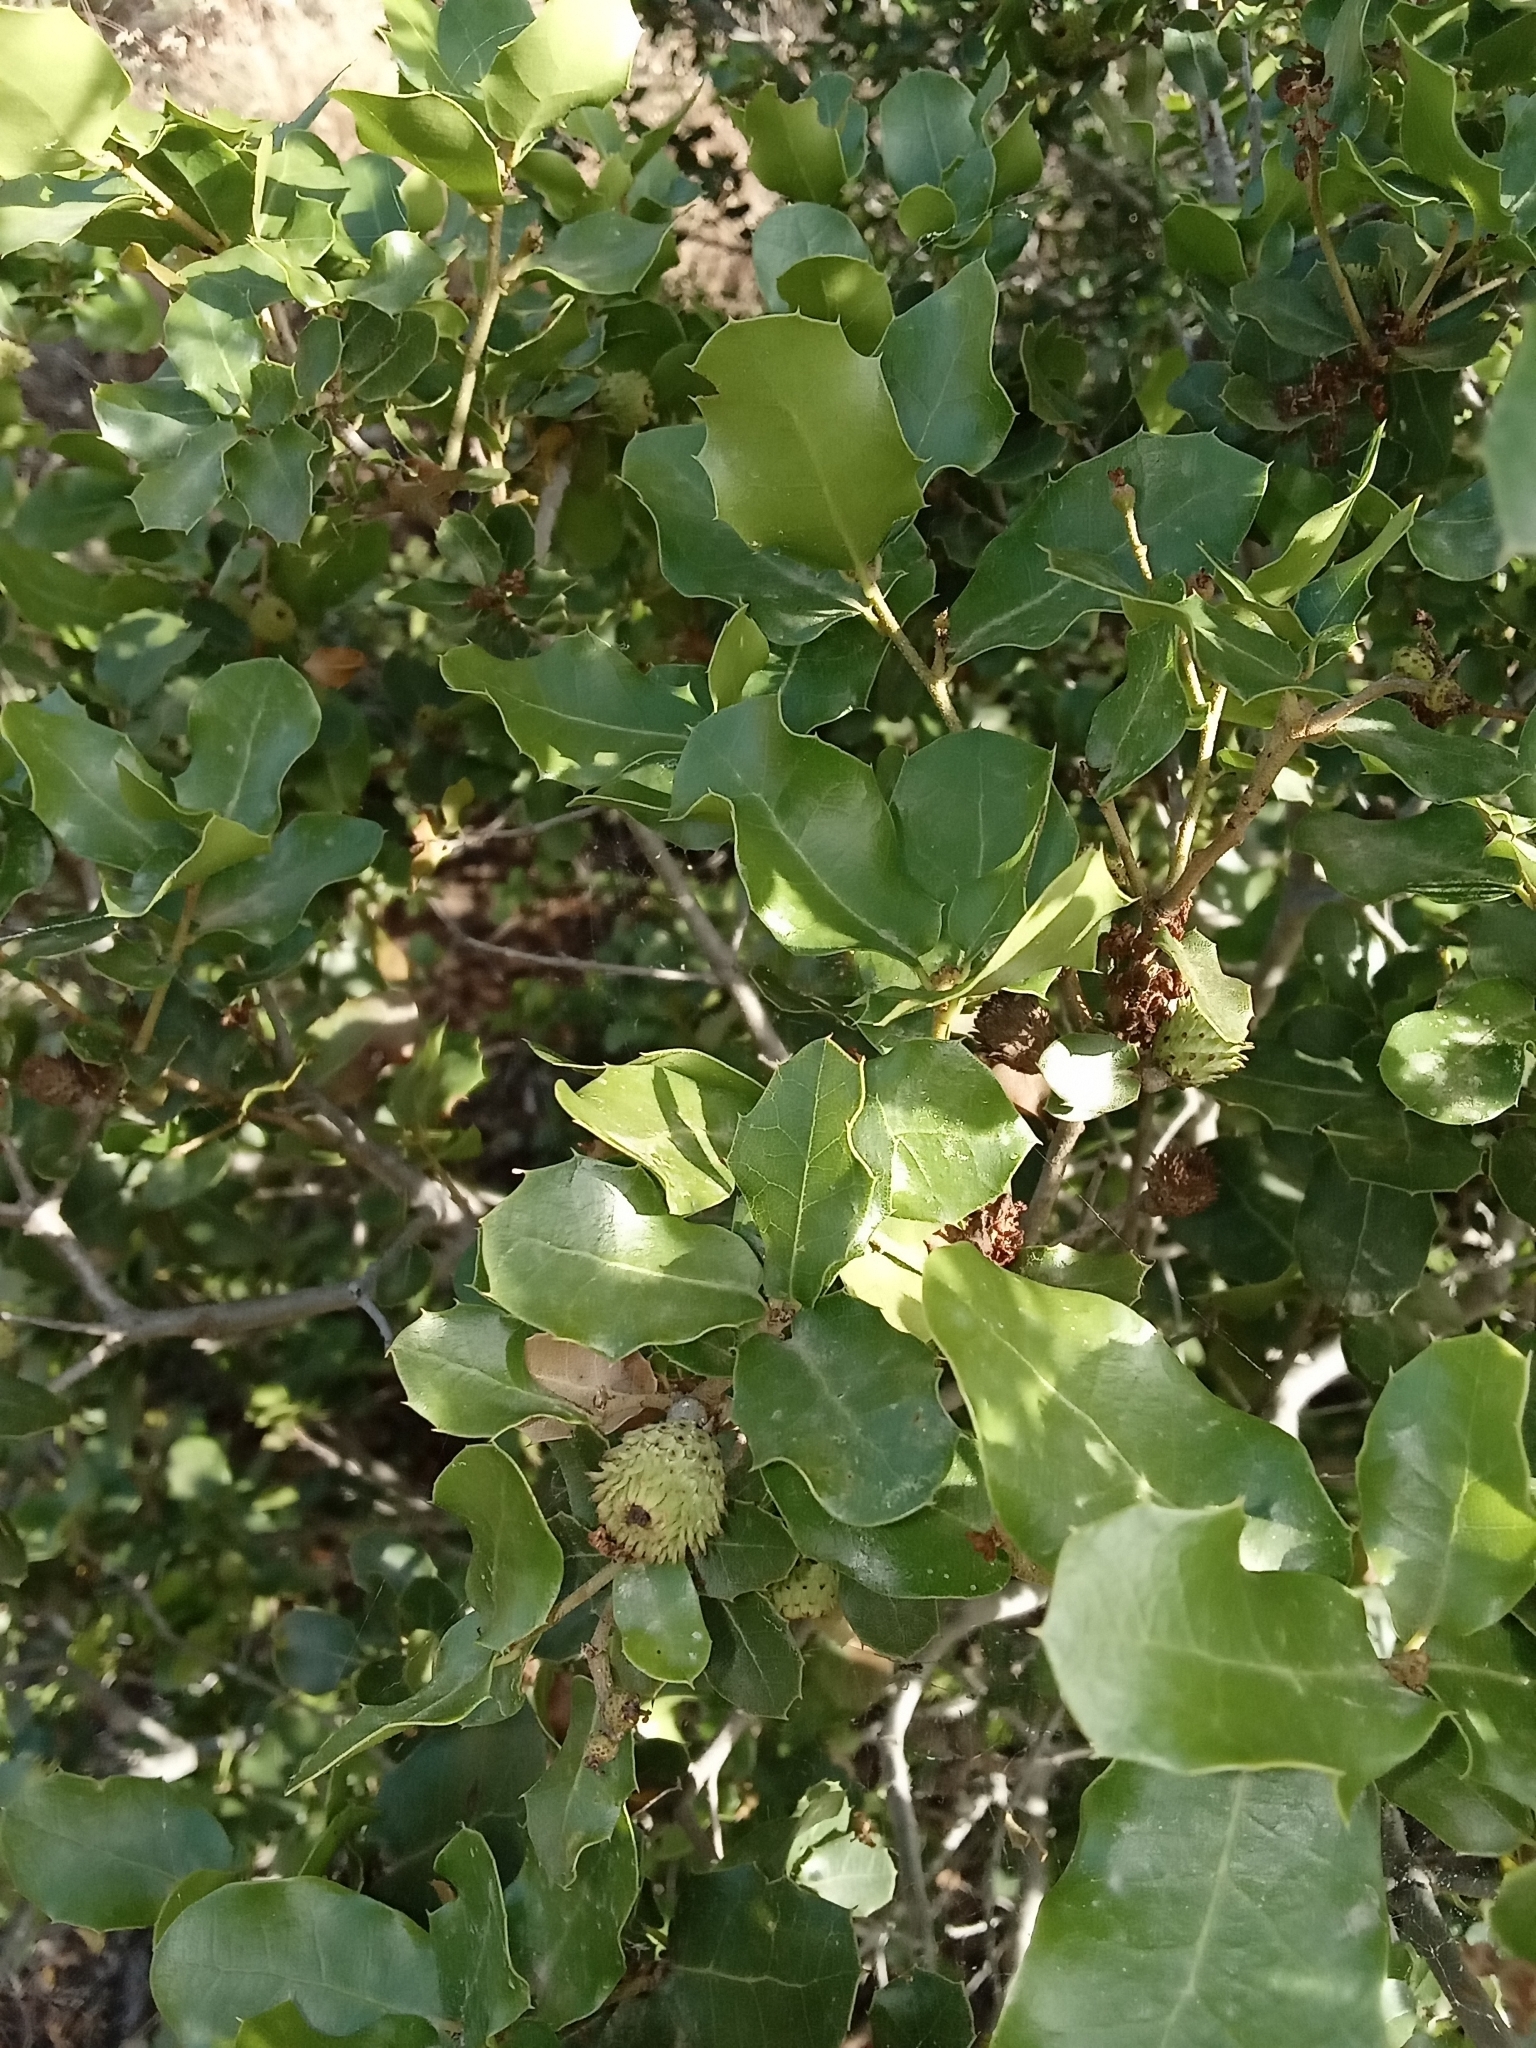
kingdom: Plantae
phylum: Tracheophyta
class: Magnoliopsida
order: Fagales
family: Fagaceae
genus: Quercus
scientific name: Quercus coccifera
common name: Kermes oak
